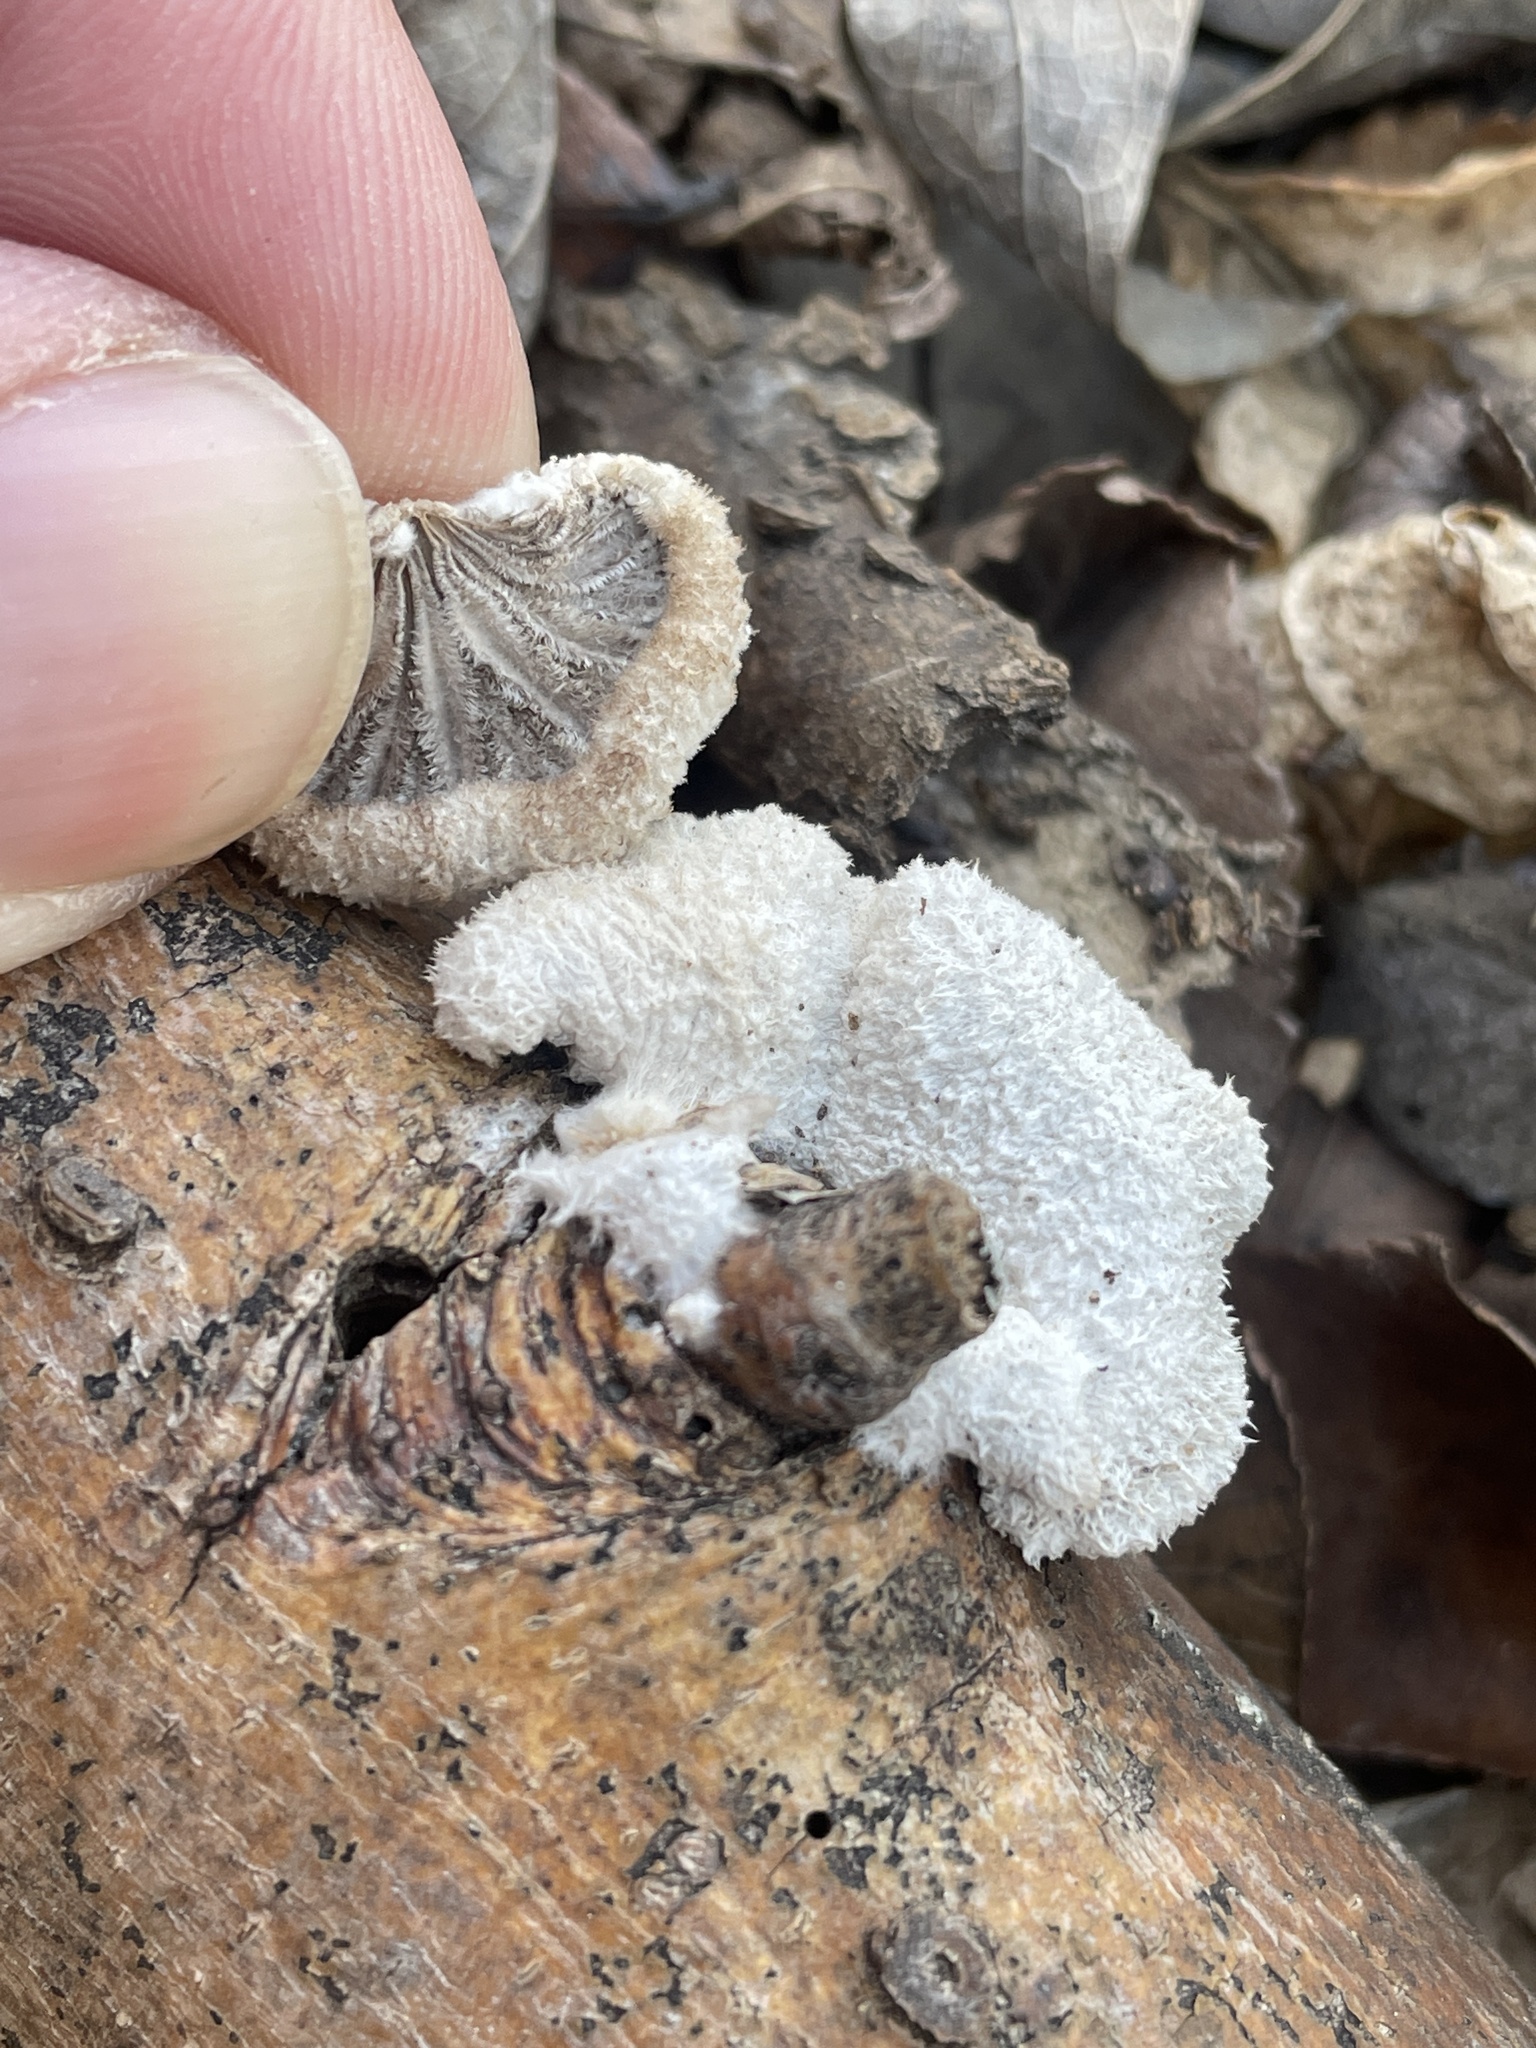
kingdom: Fungi
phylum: Basidiomycota
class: Agaricomycetes
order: Agaricales
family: Schizophyllaceae
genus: Schizophyllum
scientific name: Schizophyllum commune
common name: Common porecrust
